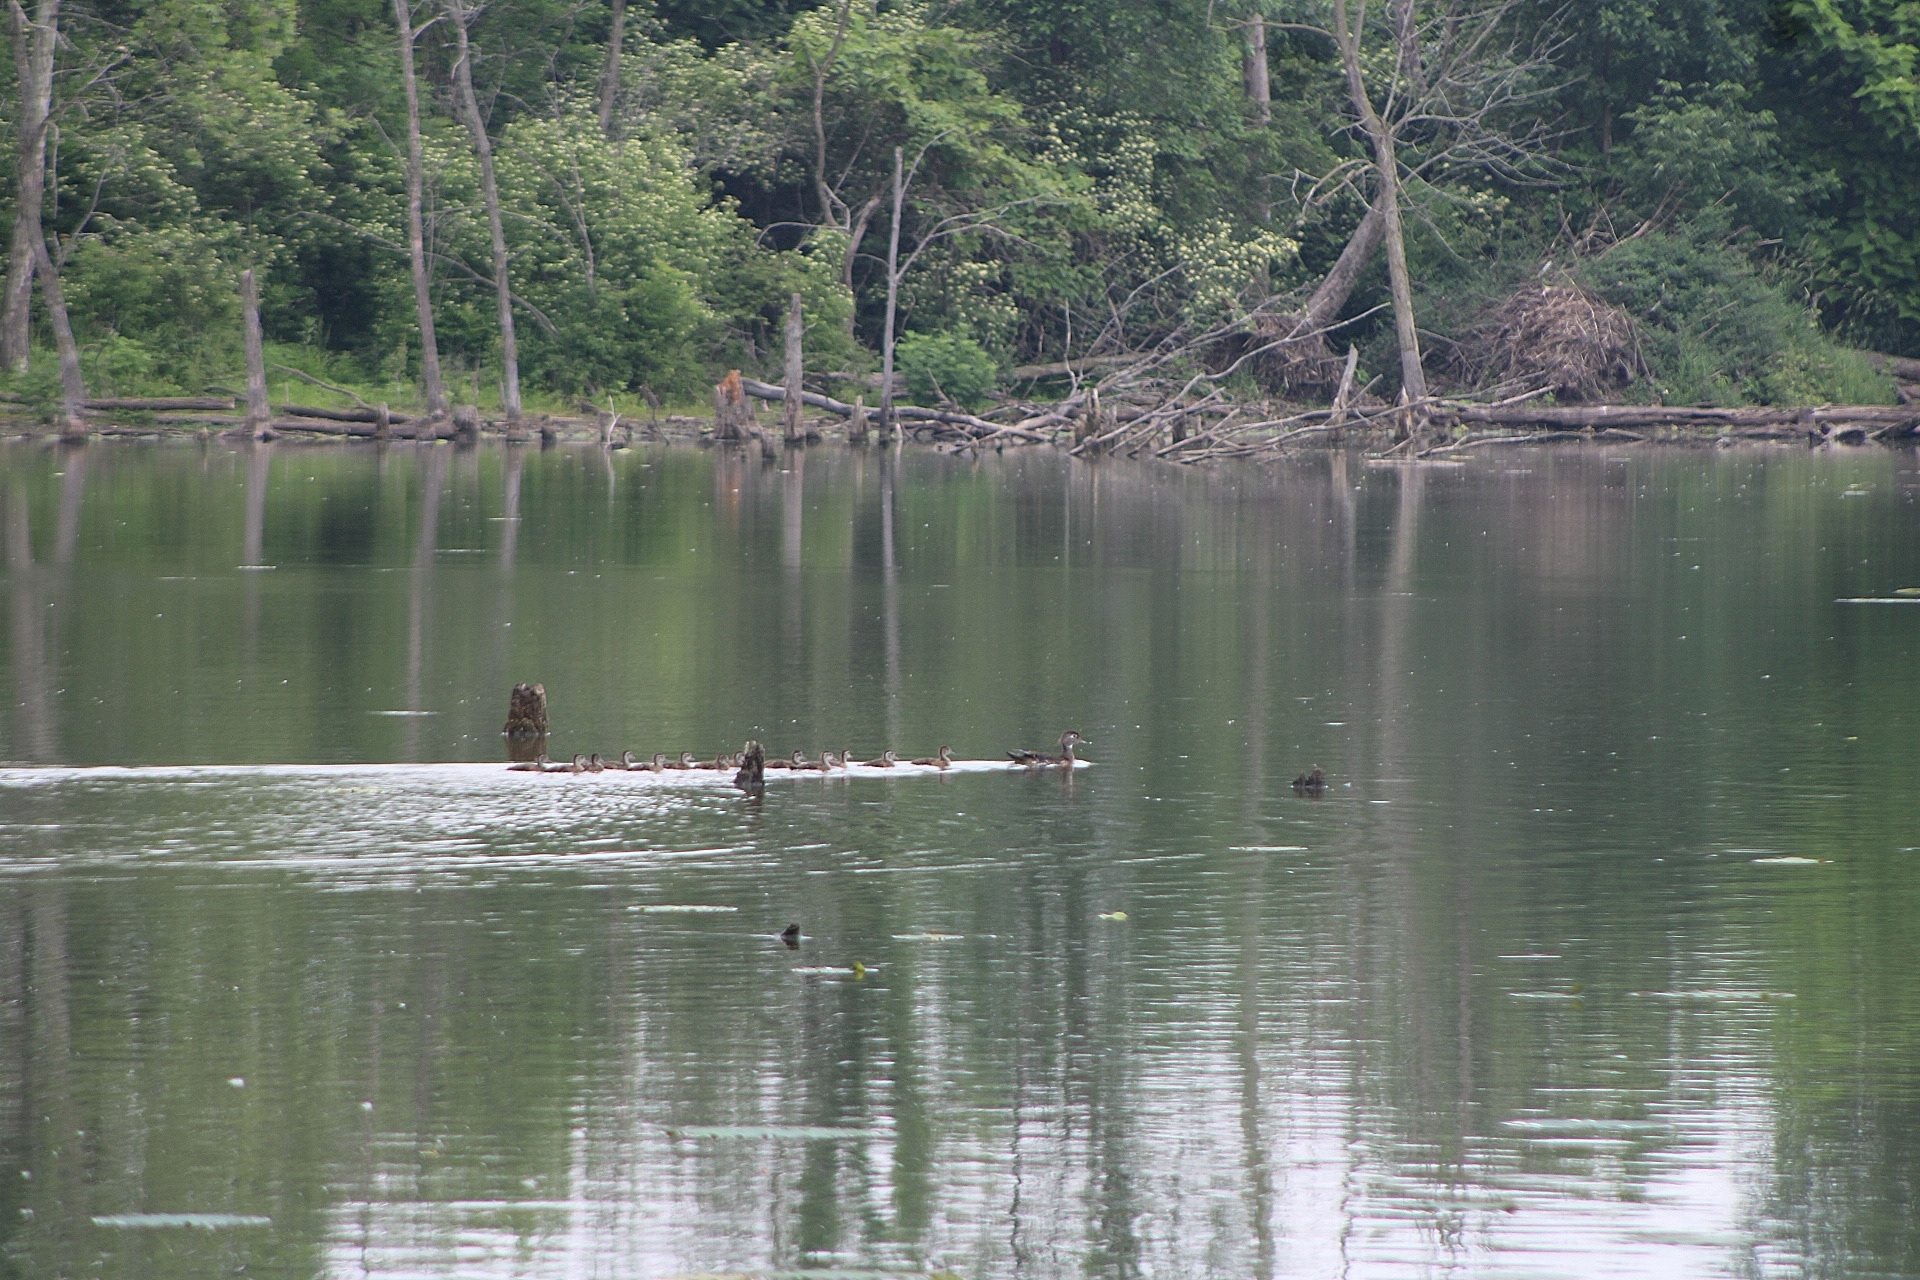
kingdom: Animalia
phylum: Chordata
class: Aves
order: Anseriformes
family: Anatidae
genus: Aix
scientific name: Aix sponsa
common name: Wood duck
